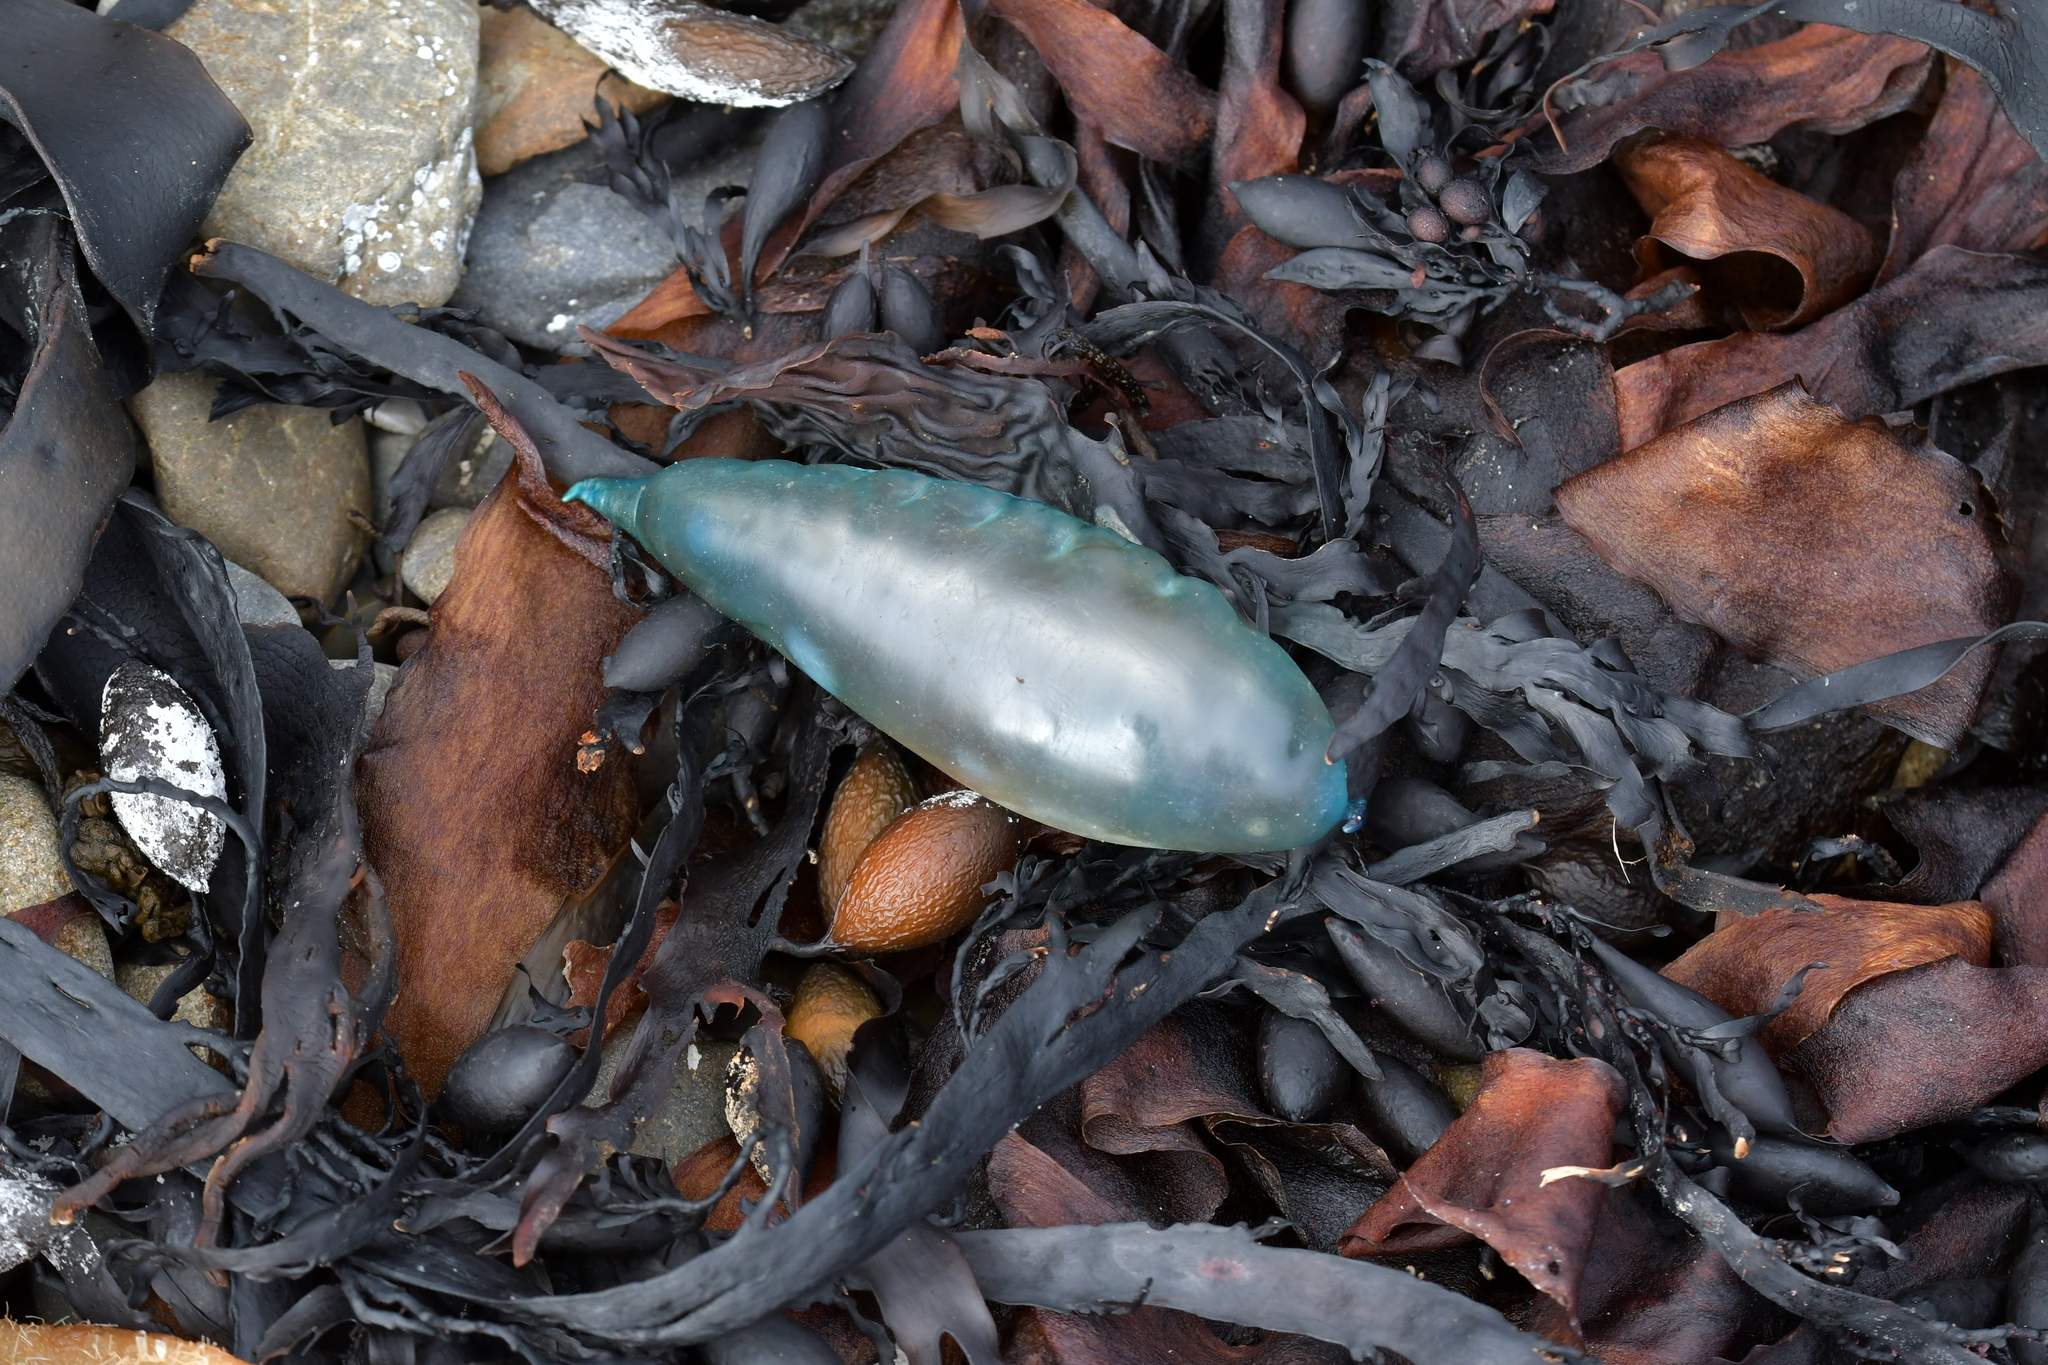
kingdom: Animalia
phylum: Cnidaria
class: Hydrozoa
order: Siphonophorae
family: Physaliidae
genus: Physalia
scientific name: Physalia physalis
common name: Portuguese man-of-war
